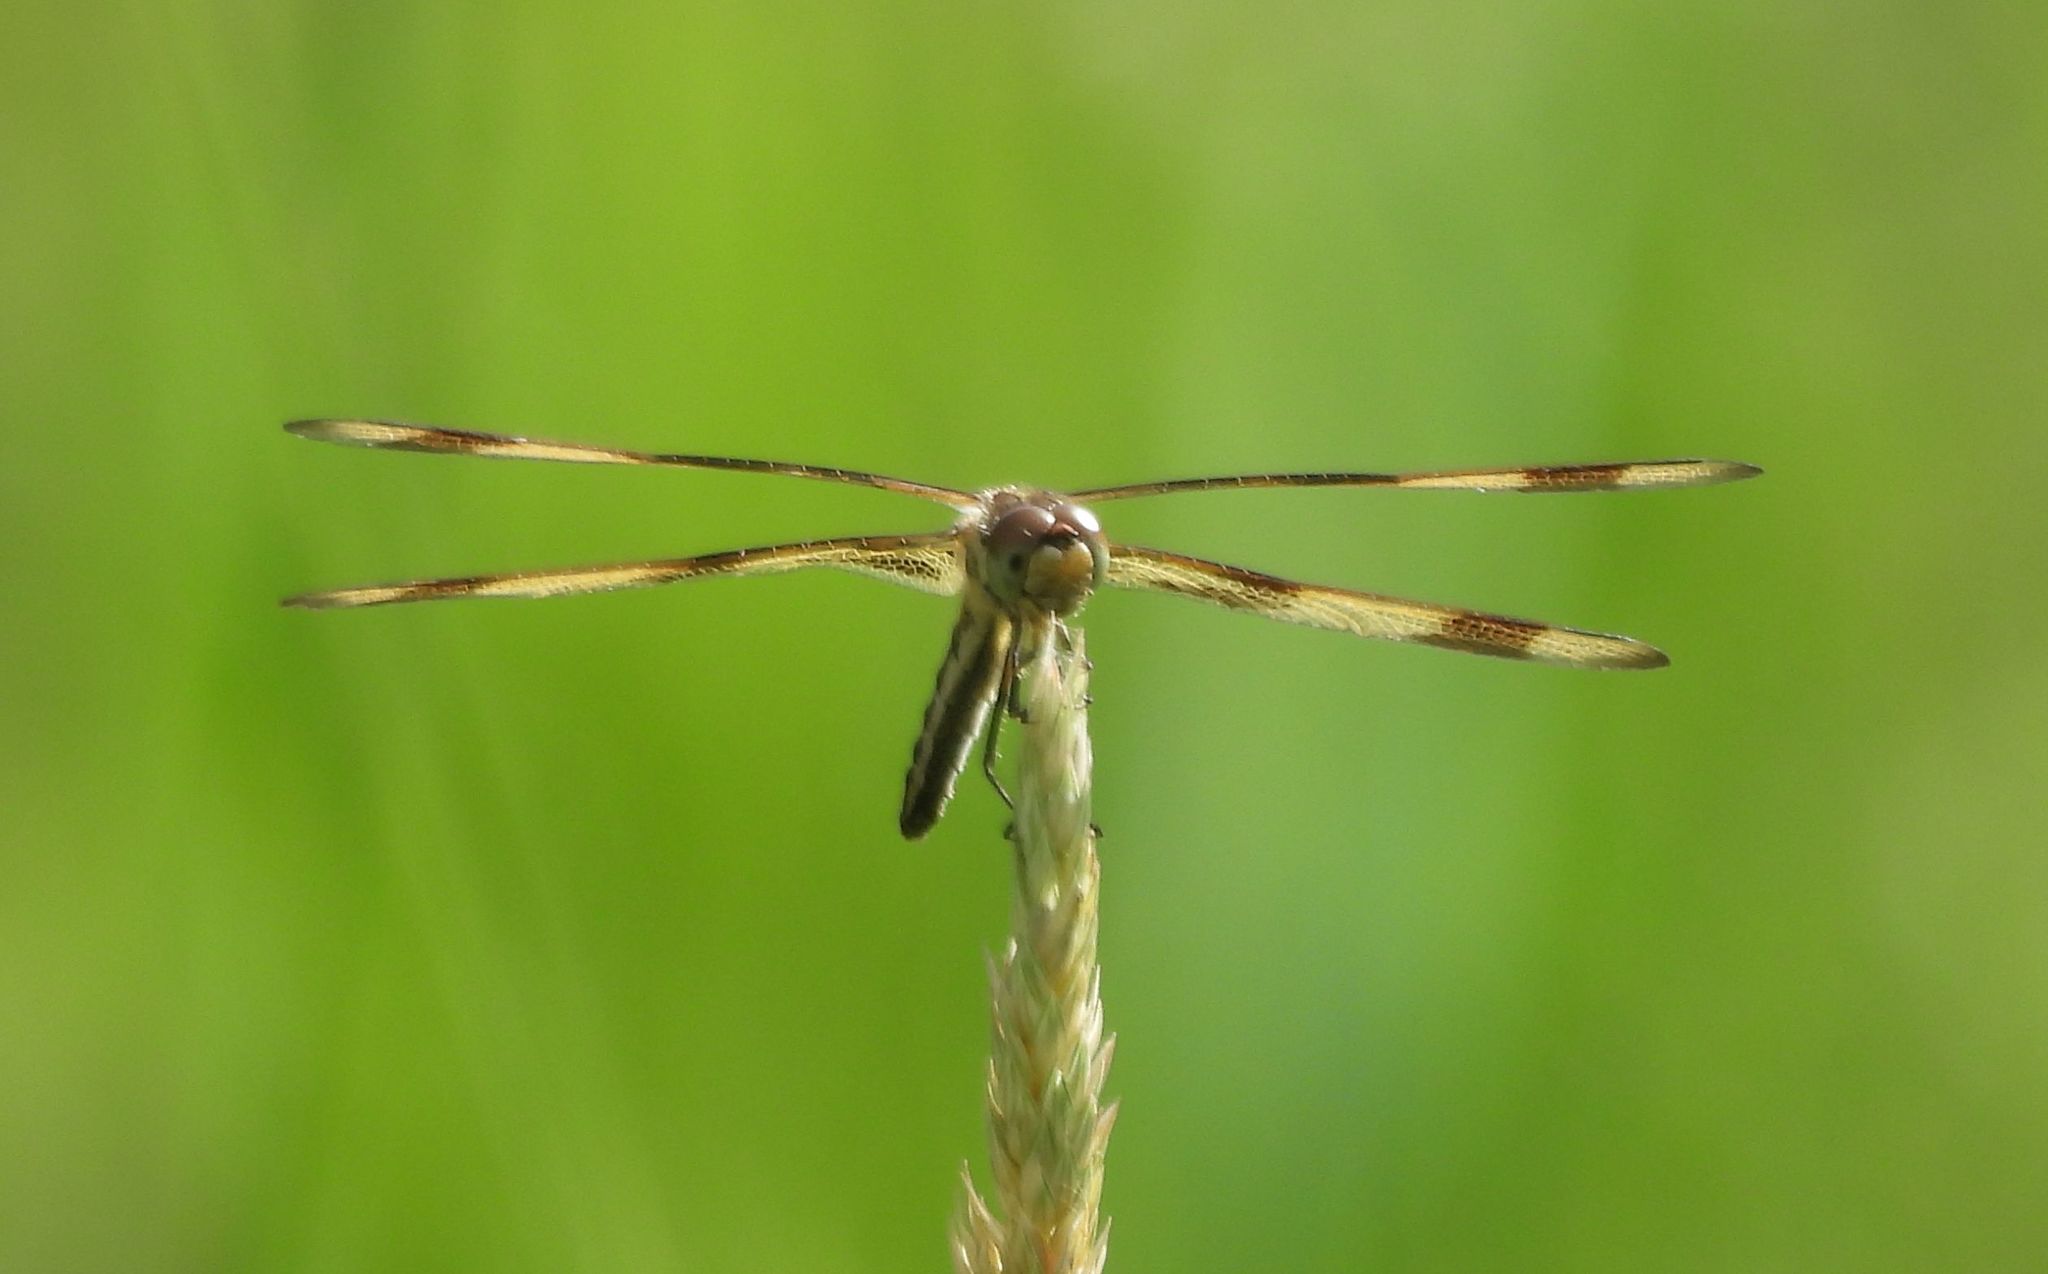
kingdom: Animalia
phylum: Arthropoda
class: Insecta
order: Odonata
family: Libellulidae
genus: Celithemis
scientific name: Celithemis eponina
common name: Halloween pennant
